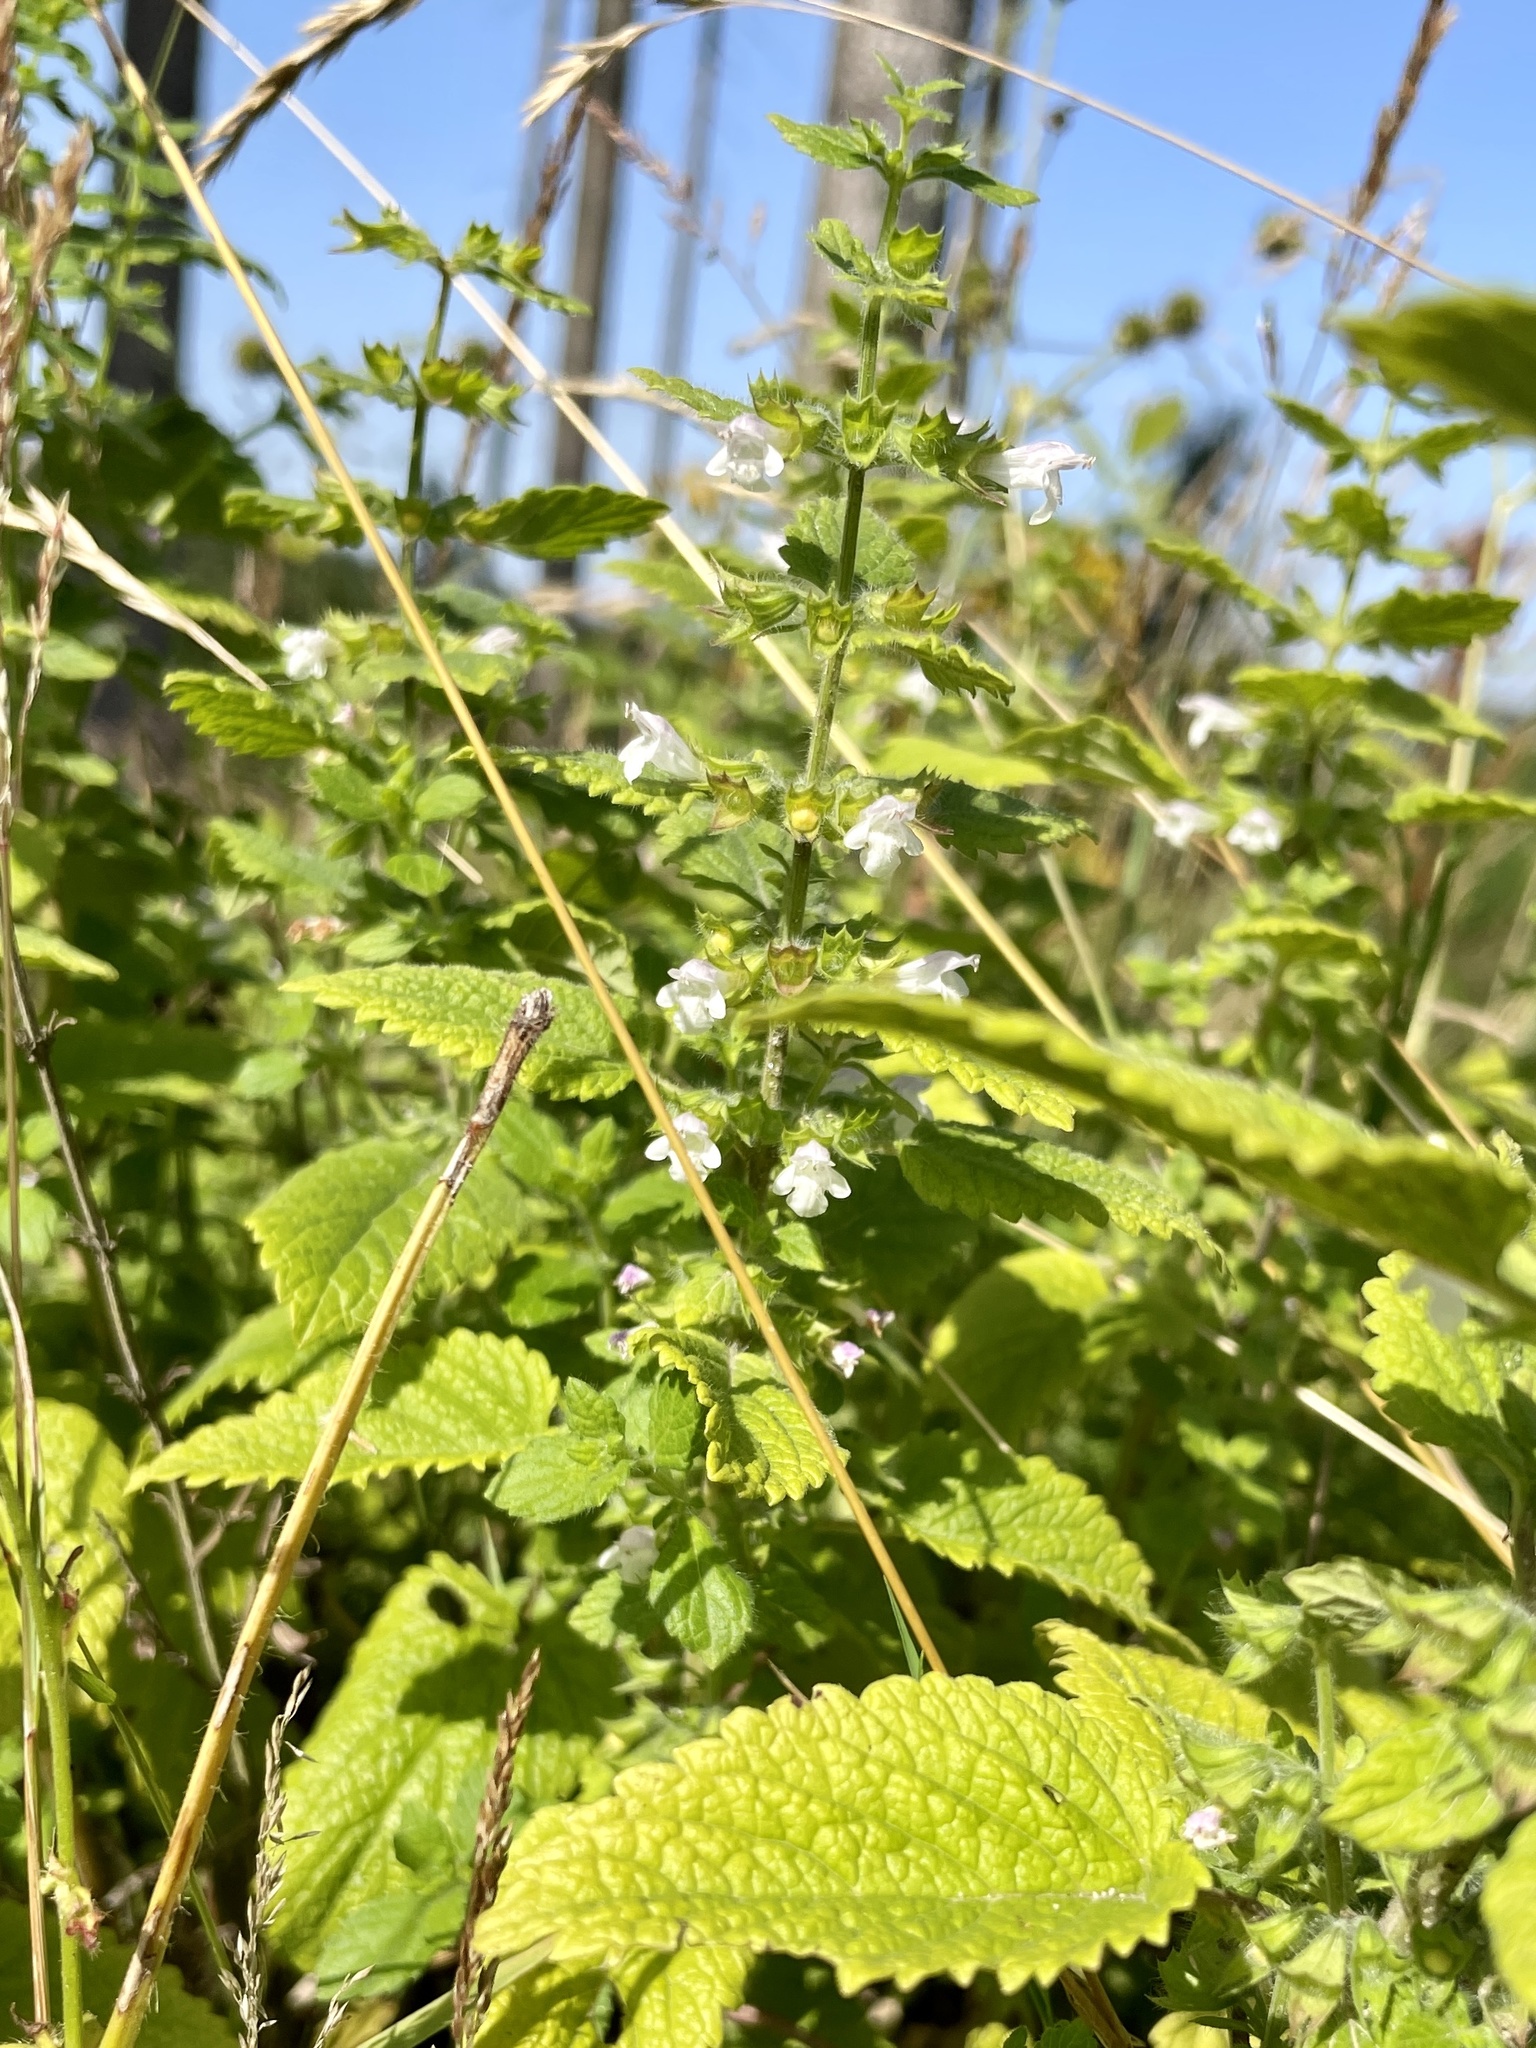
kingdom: Plantae
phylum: Tracheophyta
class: Magnoliopsida
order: Lamiales
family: Lamiaceae
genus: Melissa
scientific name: Melissa officinalis
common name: Balm
